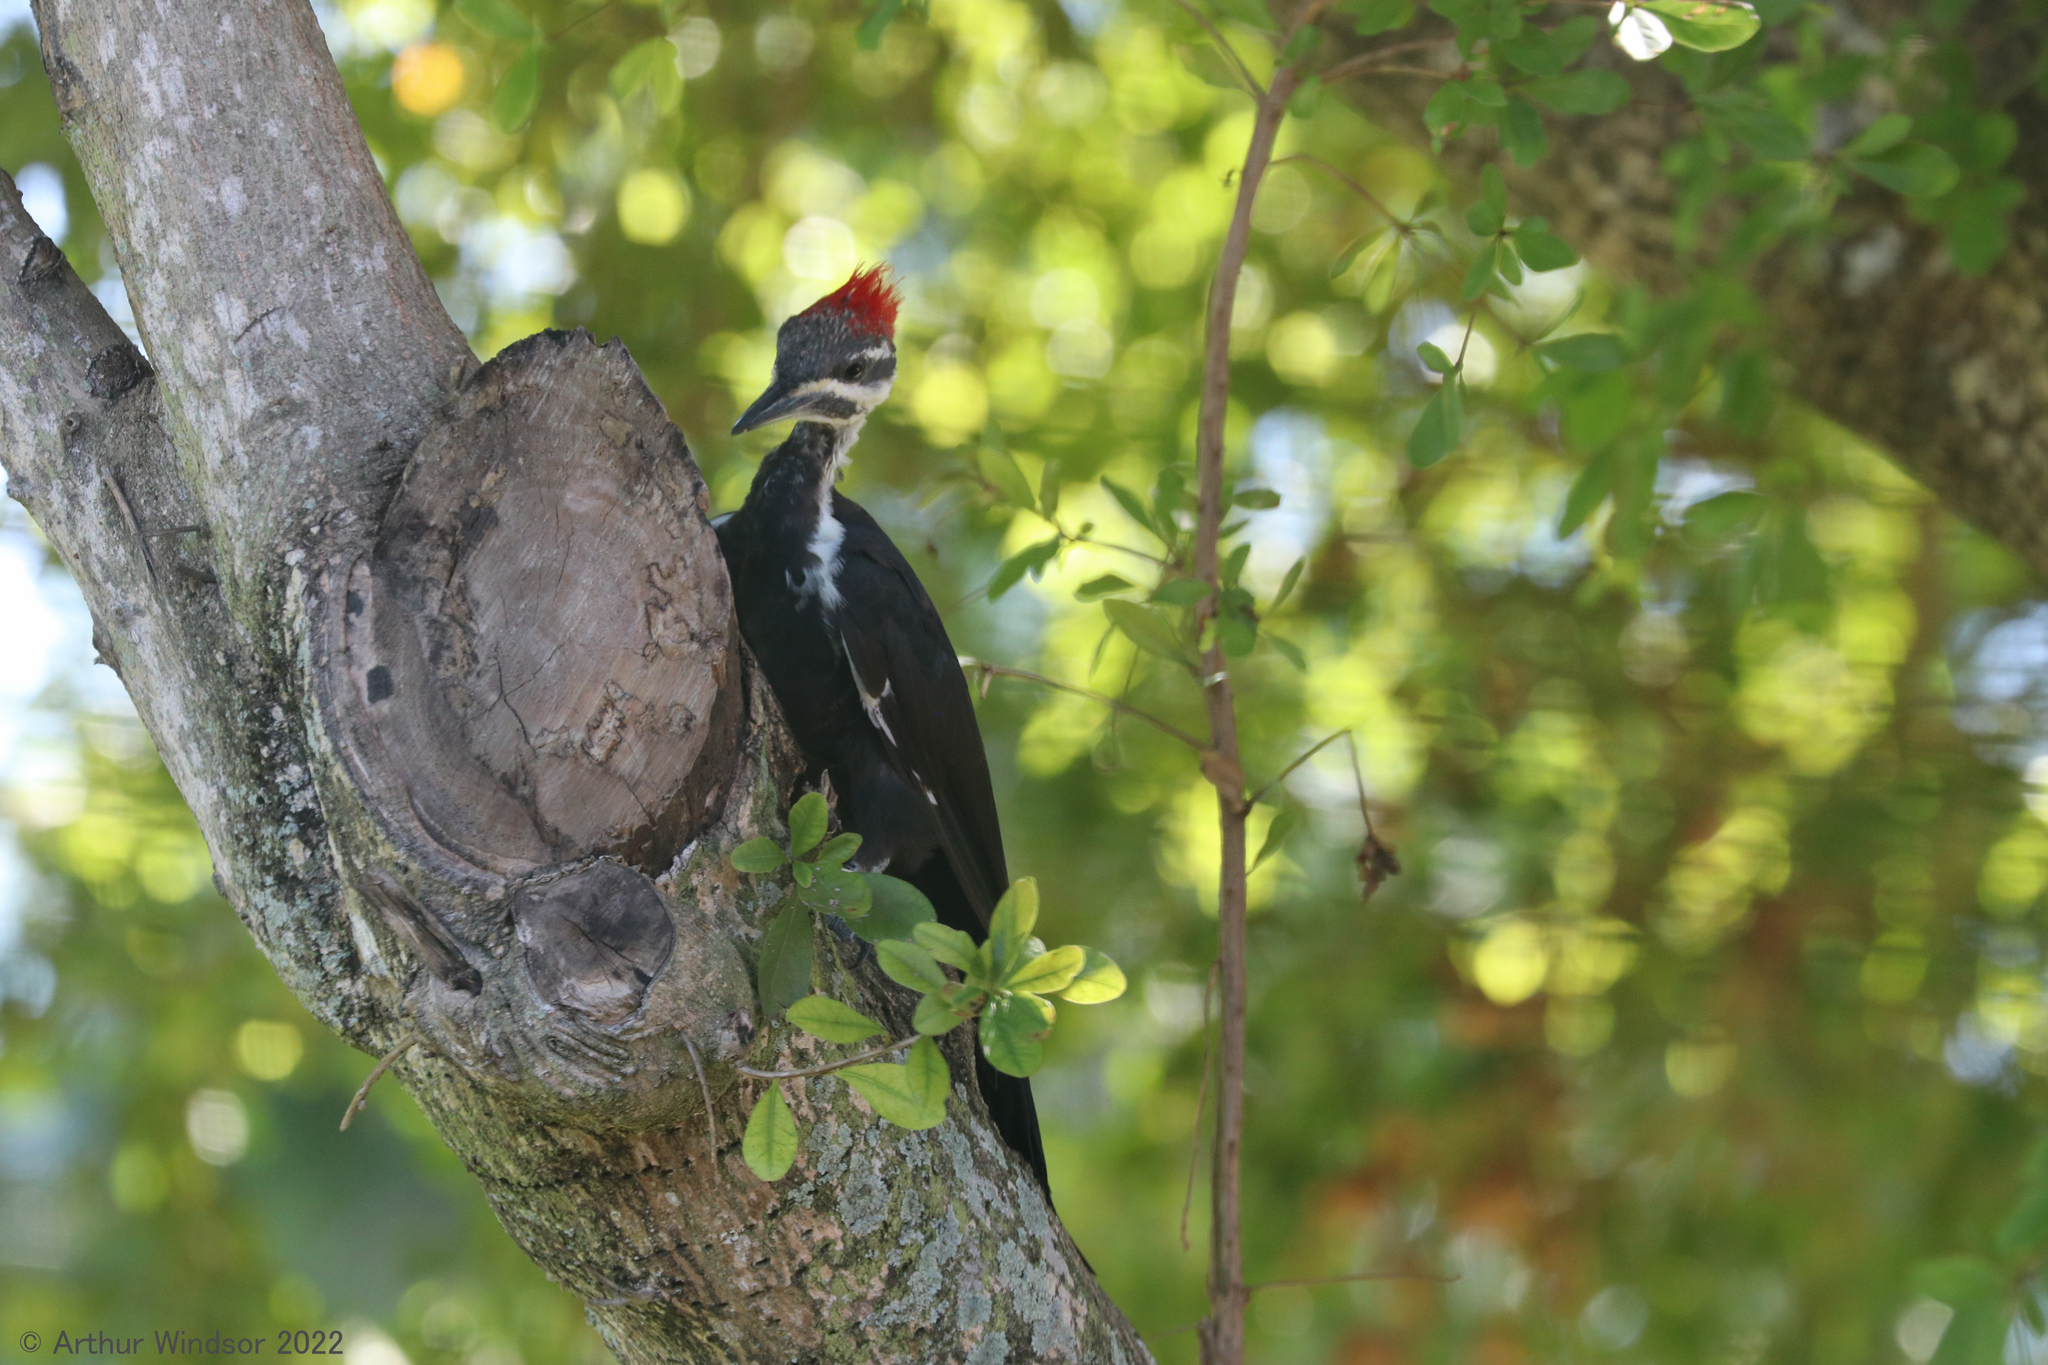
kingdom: Animalia
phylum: Chordata
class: Aves
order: Piciformes
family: Picidae
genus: Dryocopus
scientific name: Dryocopus pileatus
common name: Pileated woodpecker
